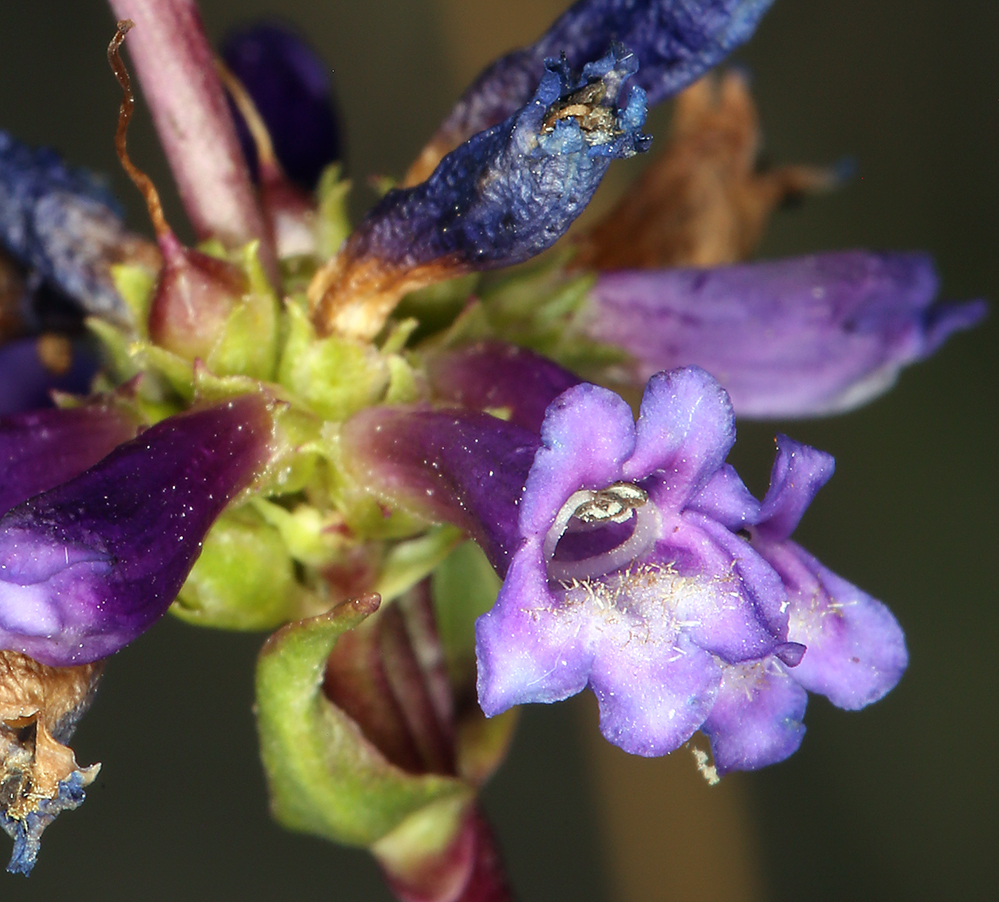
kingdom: Plantae
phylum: Tracheophyta
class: Magnoliopsida
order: Lamiales
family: Plantaginaceae
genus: Penstemon
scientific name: Penstemon cinicola
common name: Ash beardtongue
